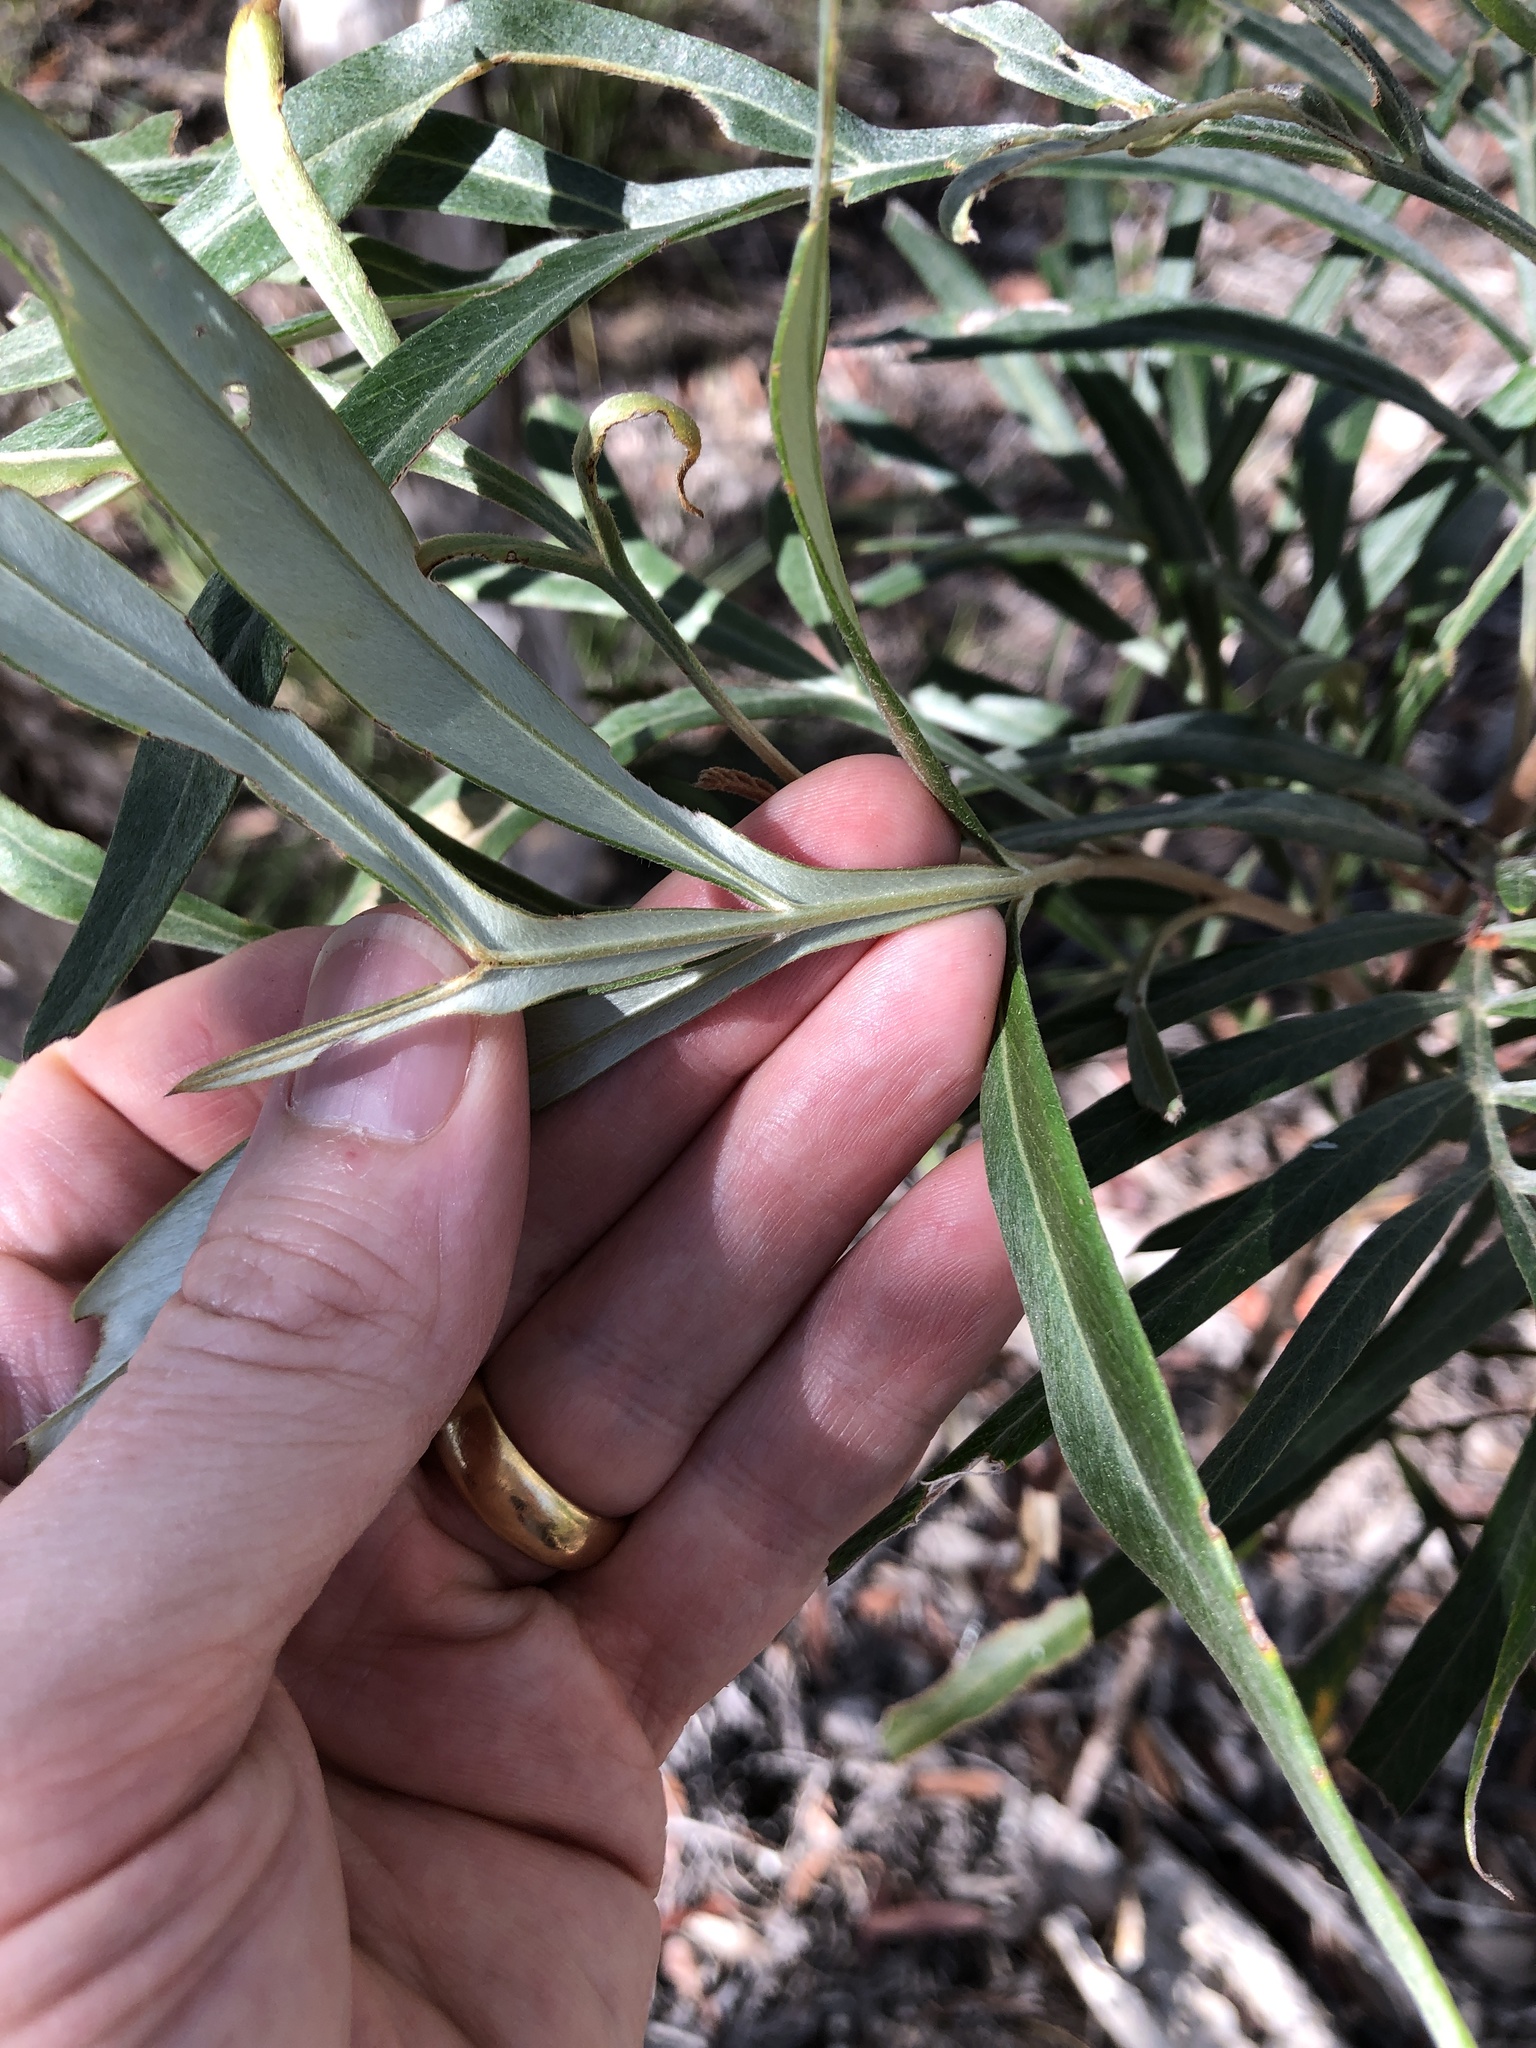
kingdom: Plantae
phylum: Tracheophyta
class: Magnoliopsida
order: Proteales
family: Proteaceae
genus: Grevillea
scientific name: Grevillea banksii
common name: Kahili flower
